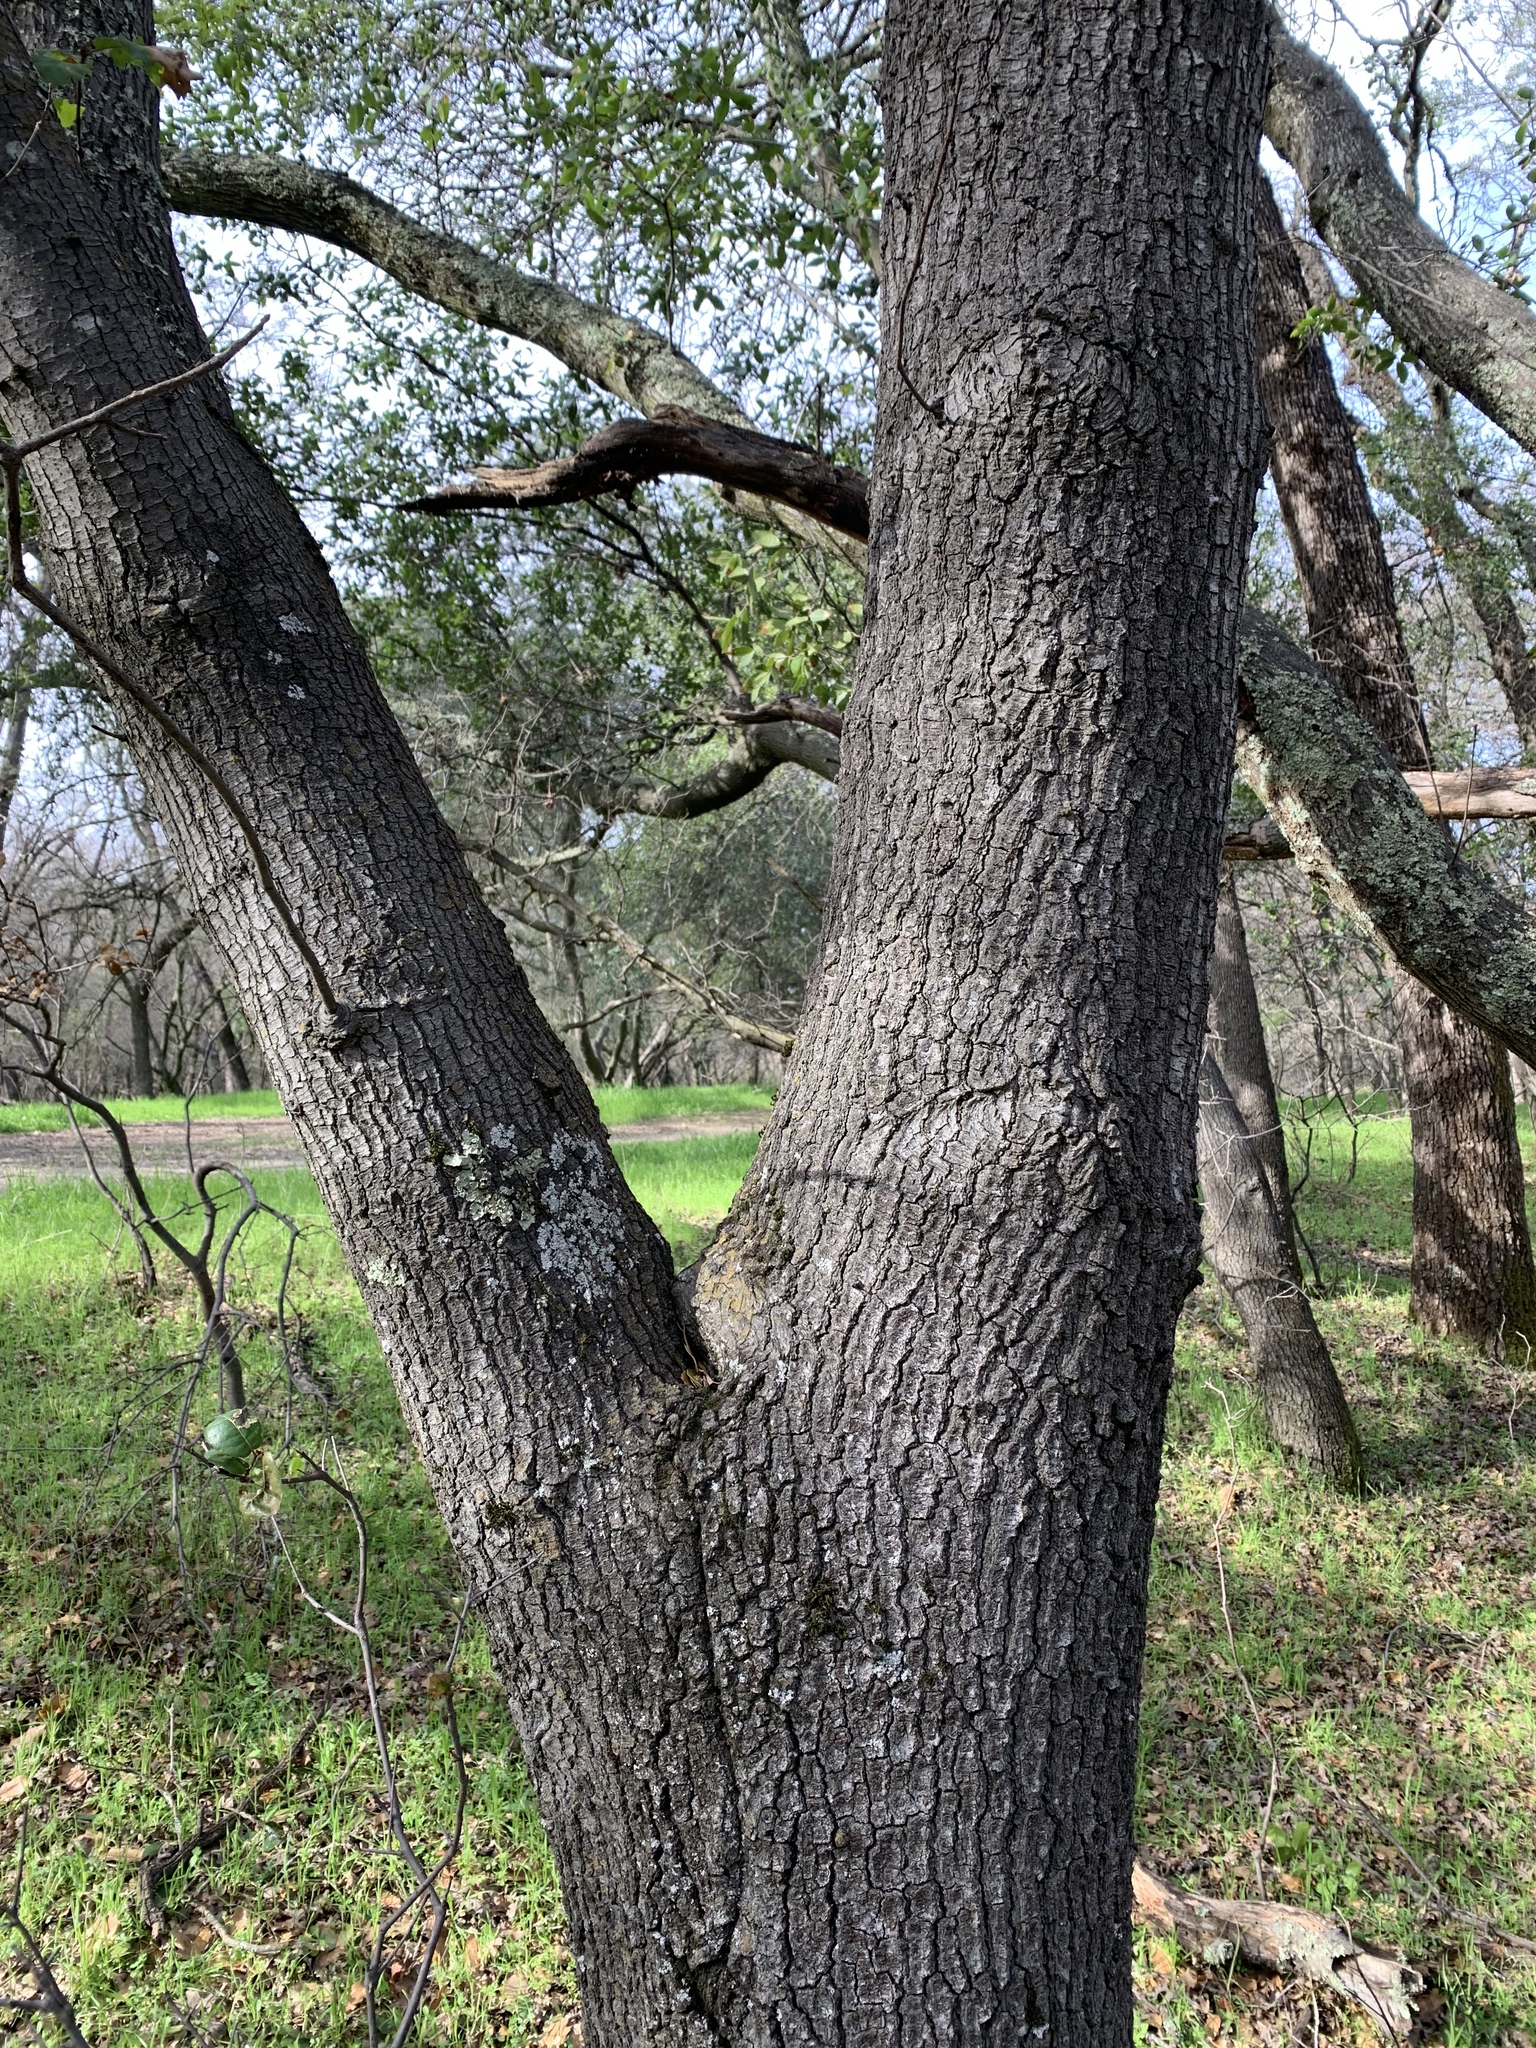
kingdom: Plantae
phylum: Tracheophyta
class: Magnoliopsida
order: Fagales
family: Fagaceae
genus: Quercus
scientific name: Quercus morehus
